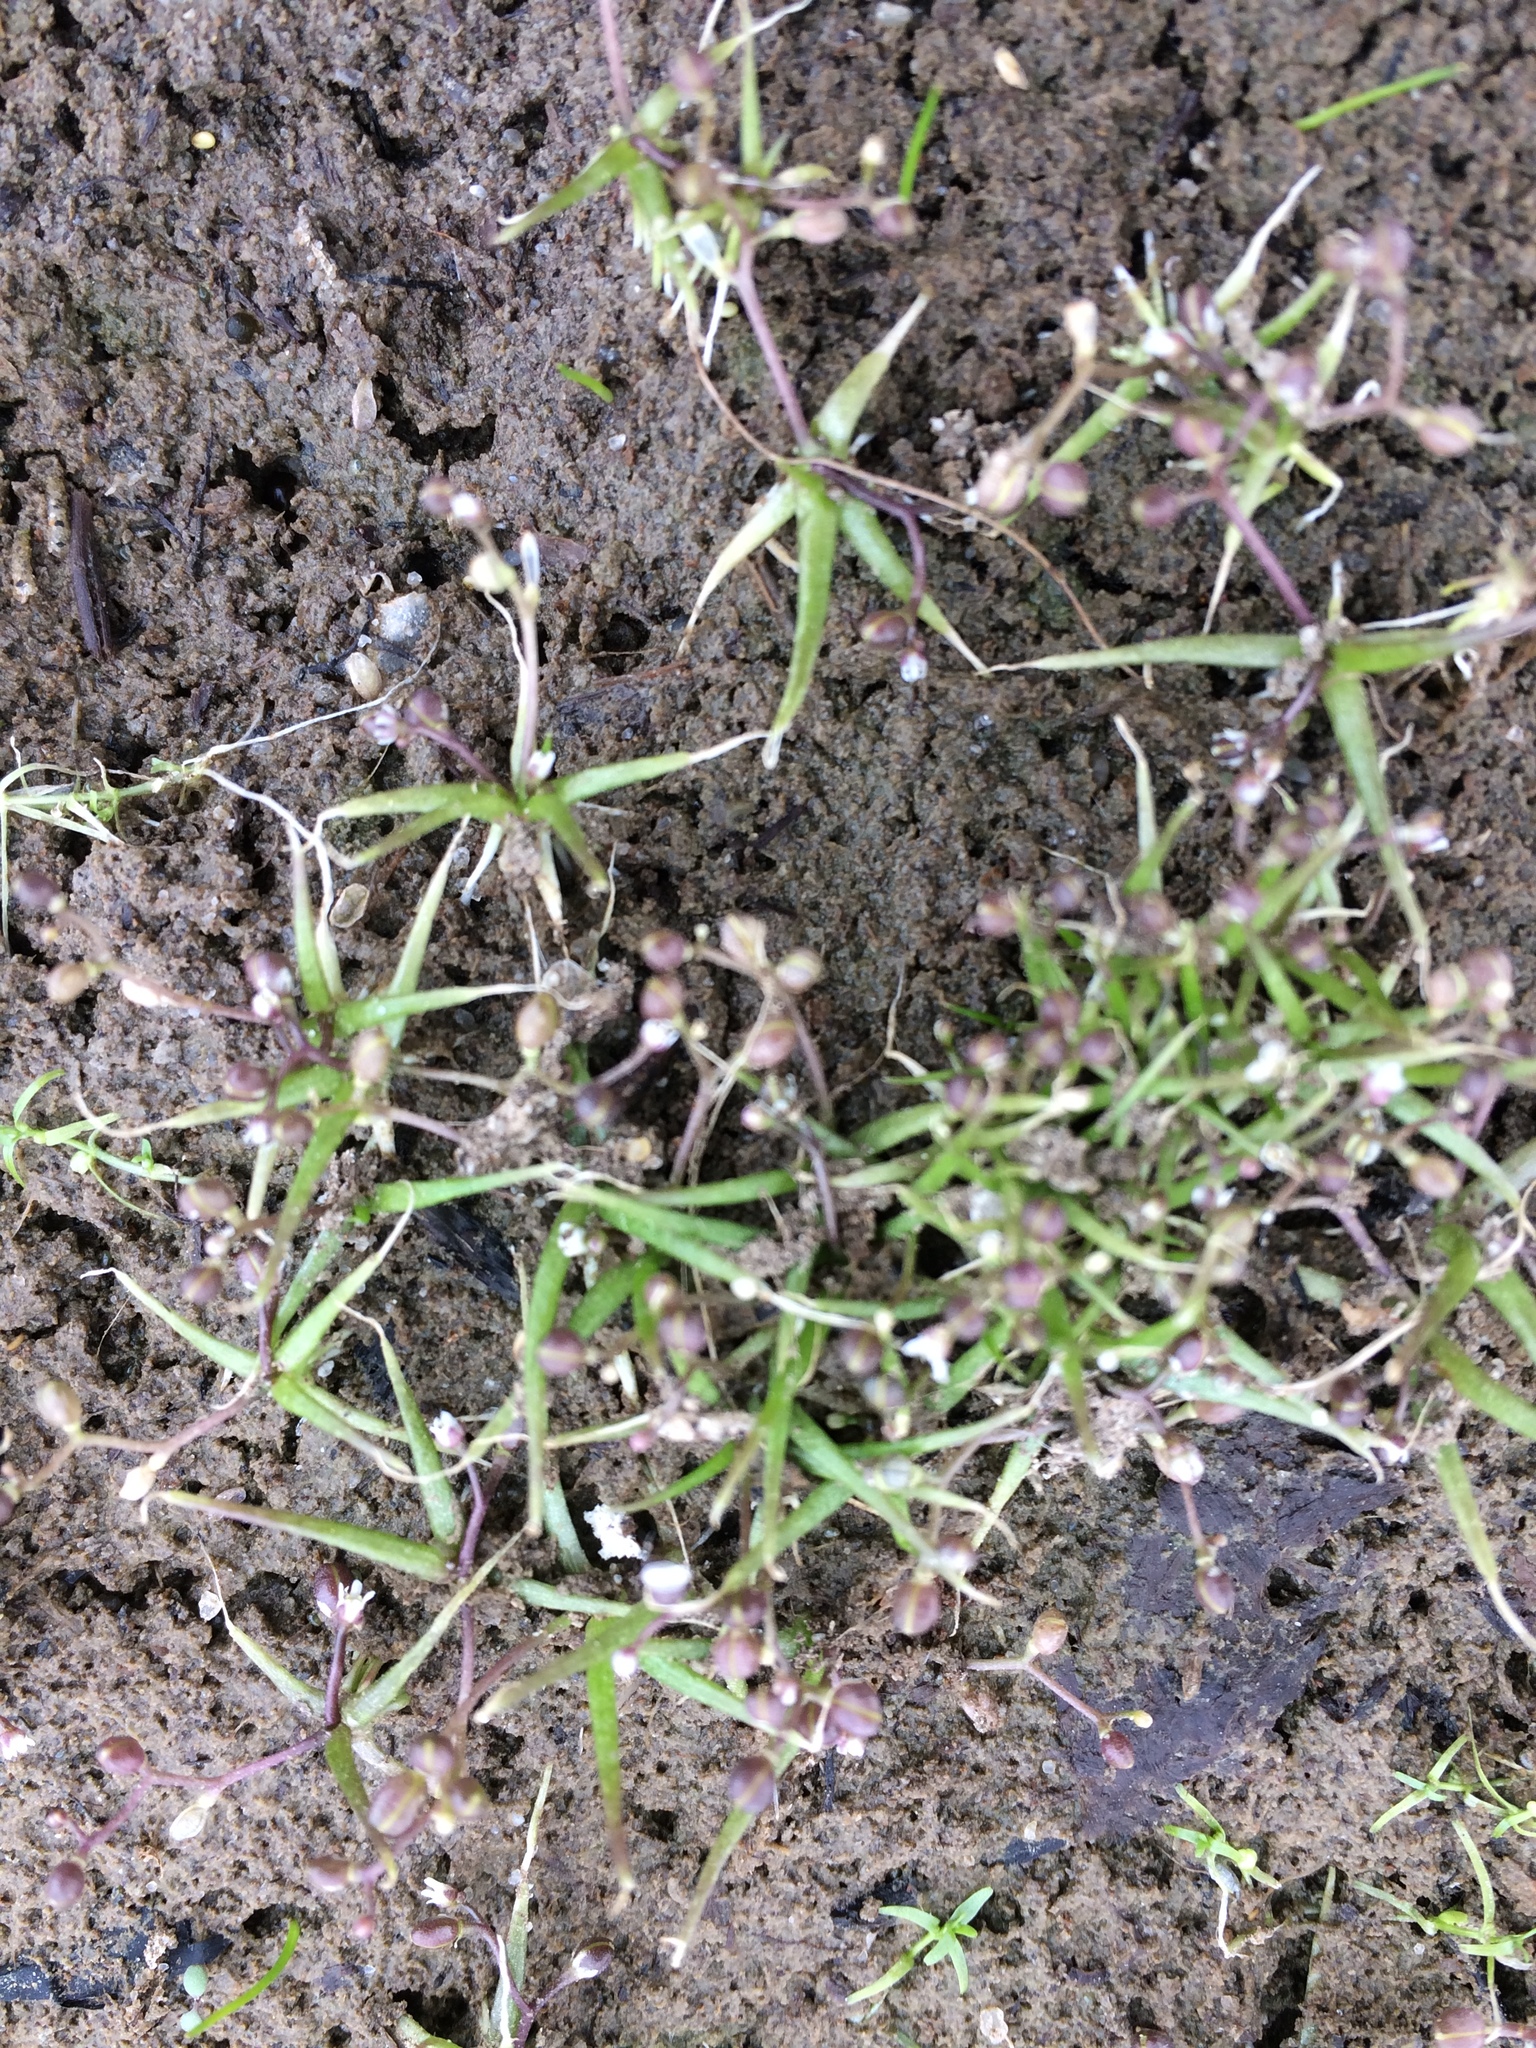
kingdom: Plantae
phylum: Tracheophyta
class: Magnoliopsida
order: Brassicales
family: Brassicaceae
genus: Subularia
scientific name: Subularia aquatica
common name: Awlwort
